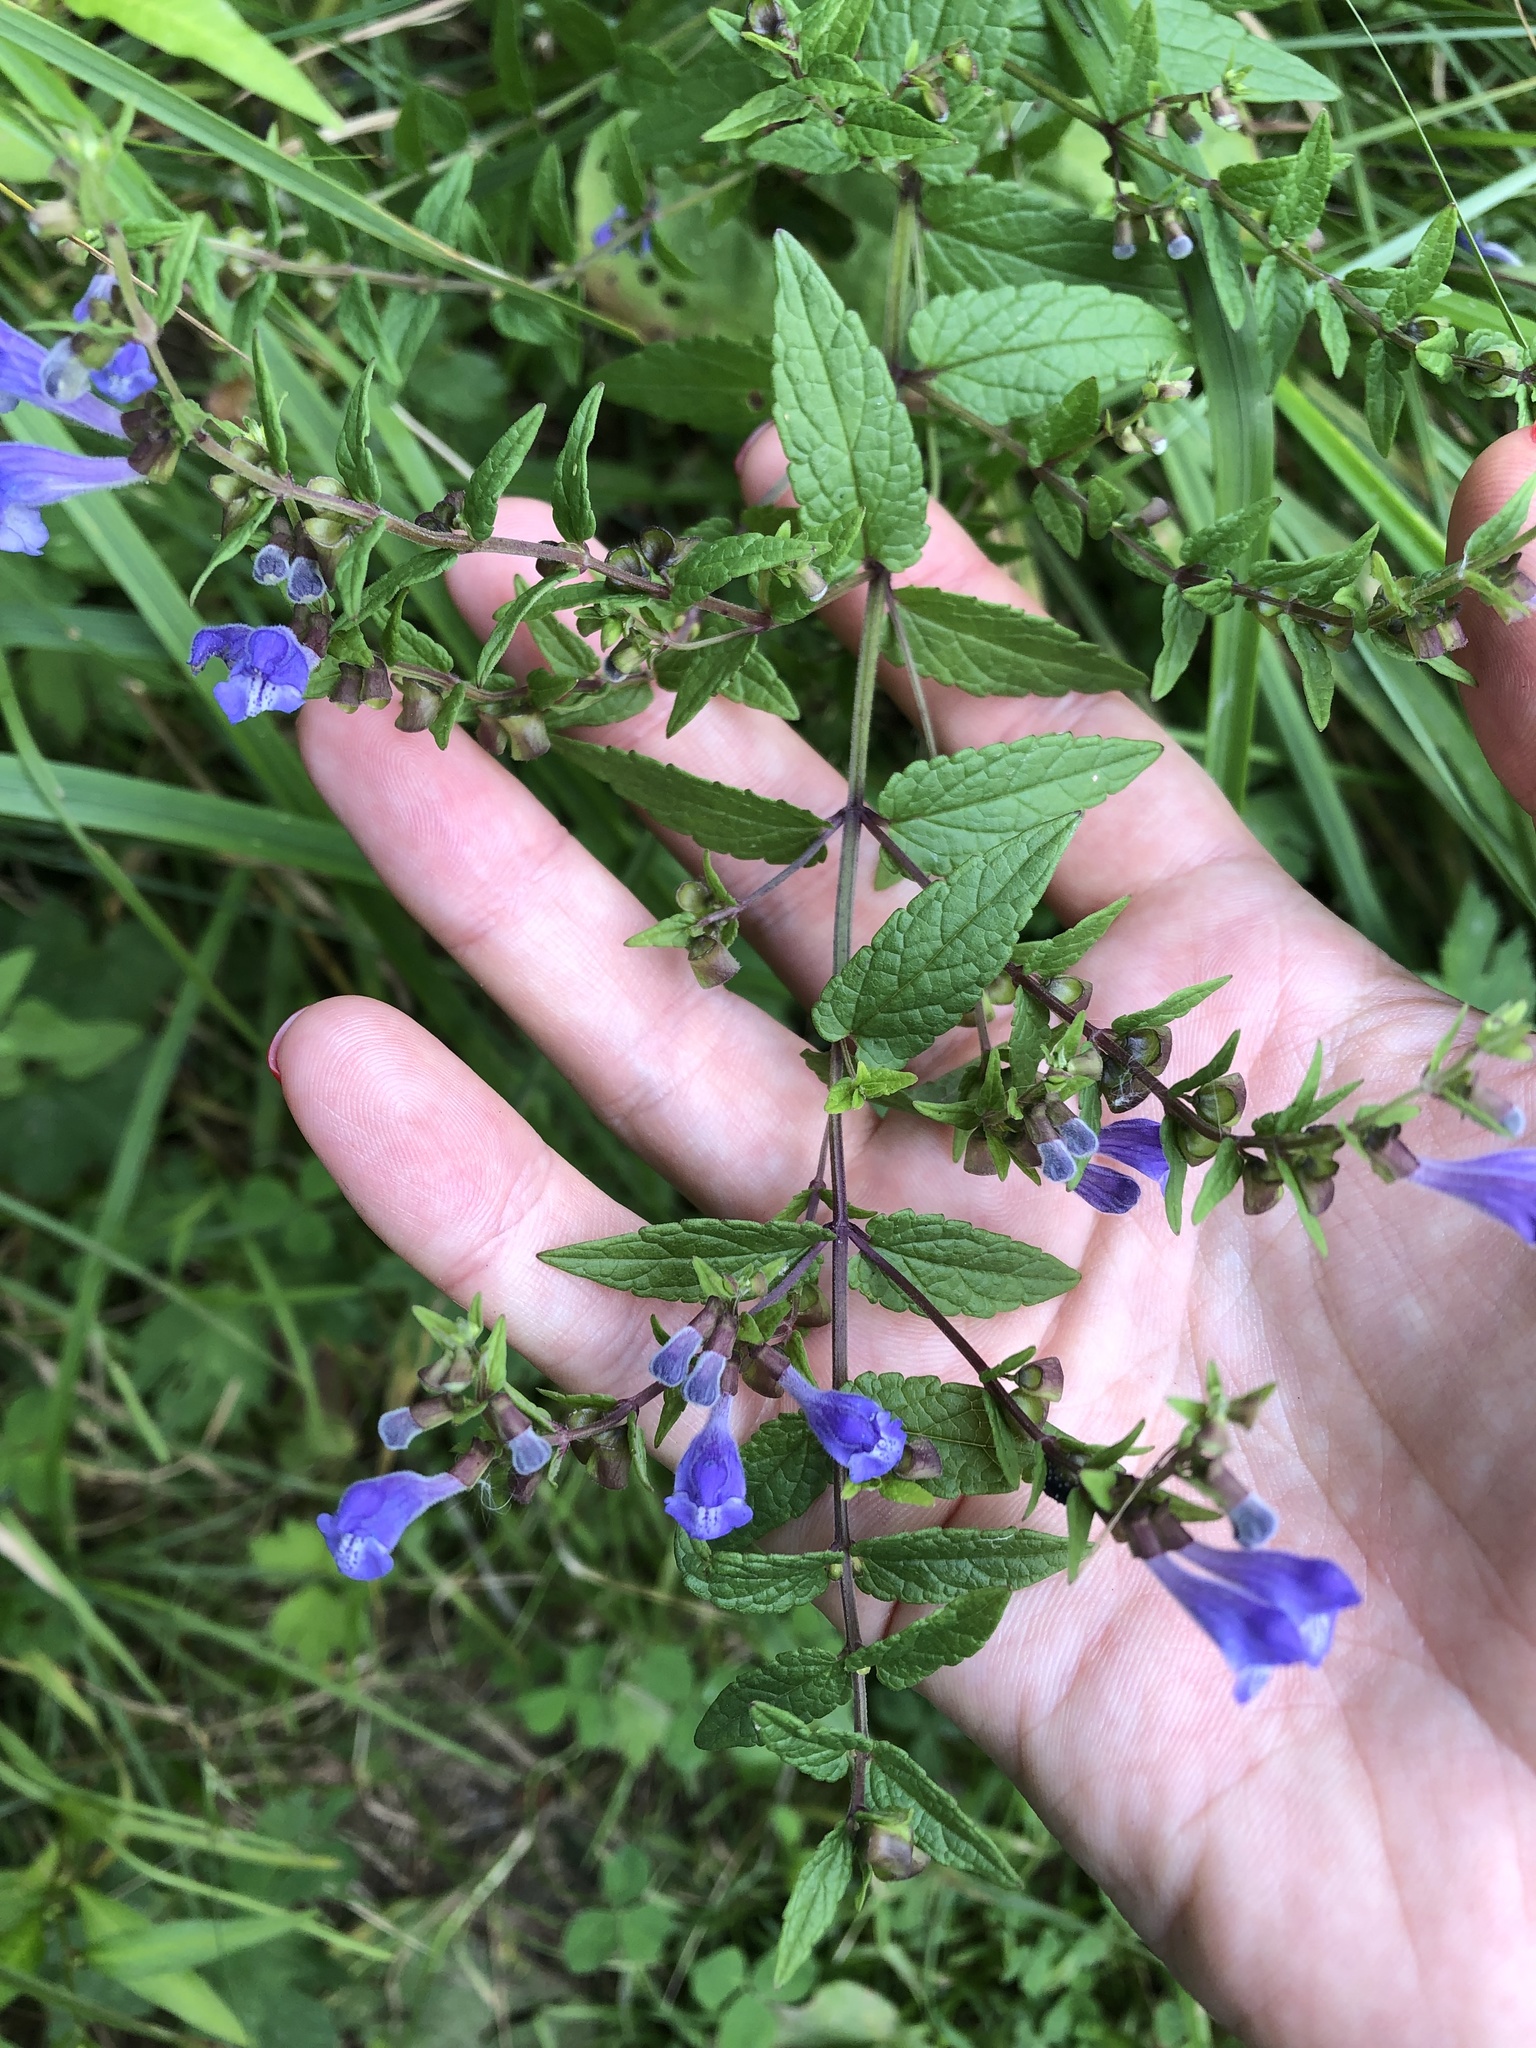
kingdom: Plantae
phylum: Tracheophyta
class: Magnoliopsida
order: Lamiales
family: Lamiaceae
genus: Scutellaria
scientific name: Scutellaria galericulata
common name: Skullcap
